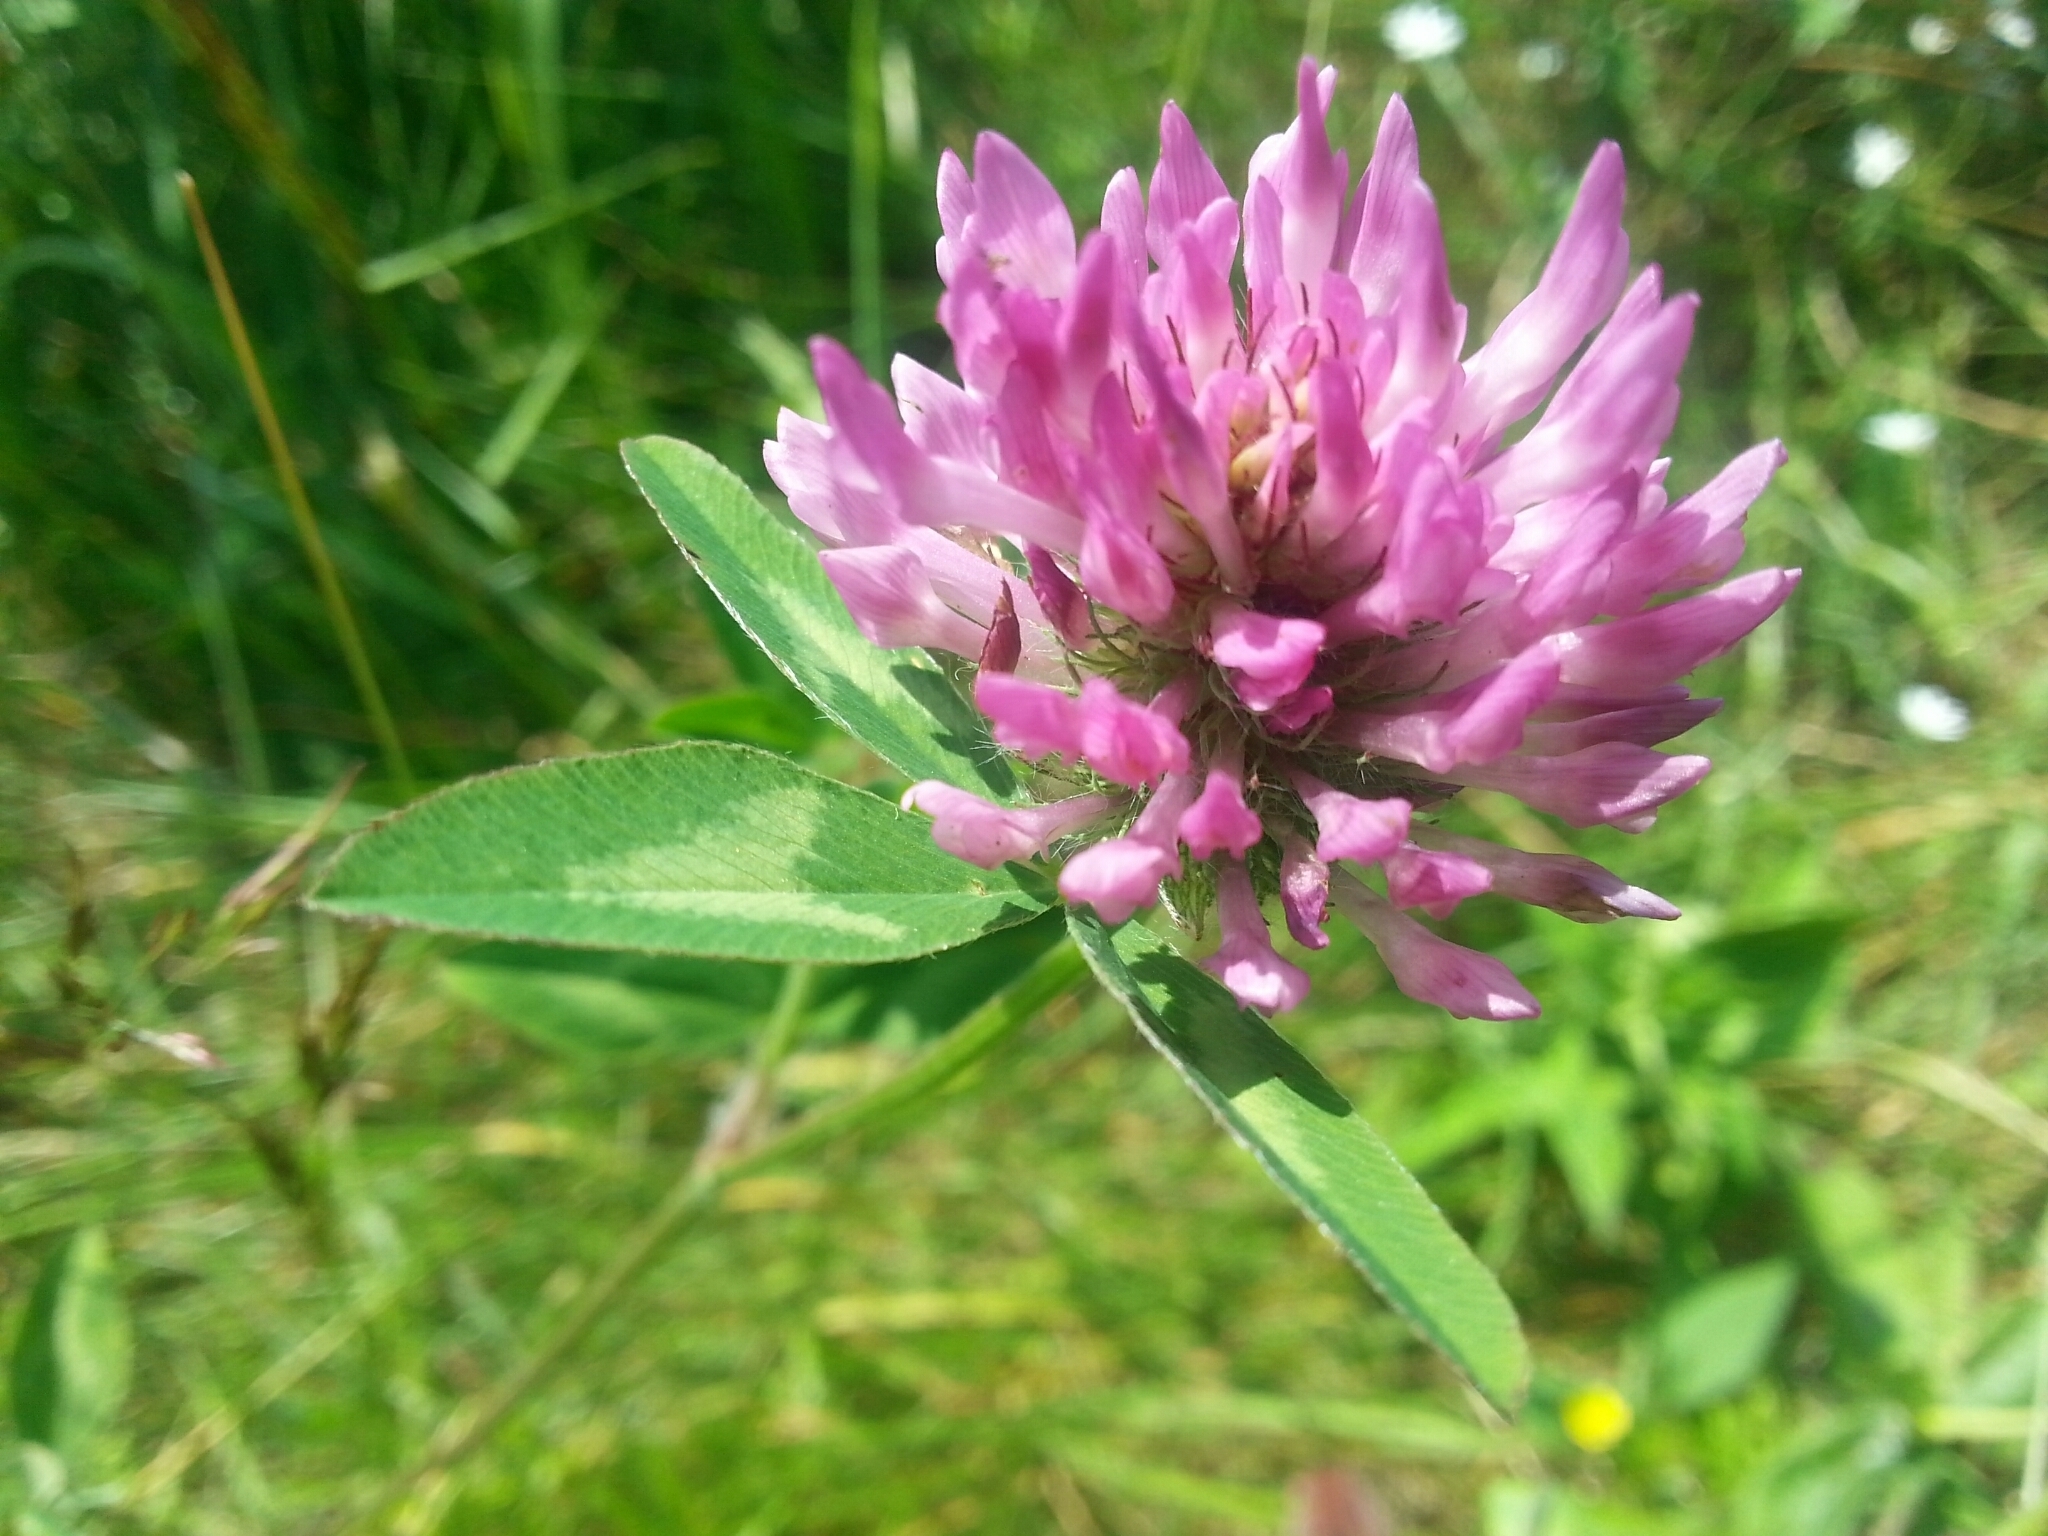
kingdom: Plantae
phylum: Tracheophyta
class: Magnoliopsida
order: Fabales
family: Fabaceae
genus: Trifolium
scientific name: Trifolium pratense
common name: Red clover
